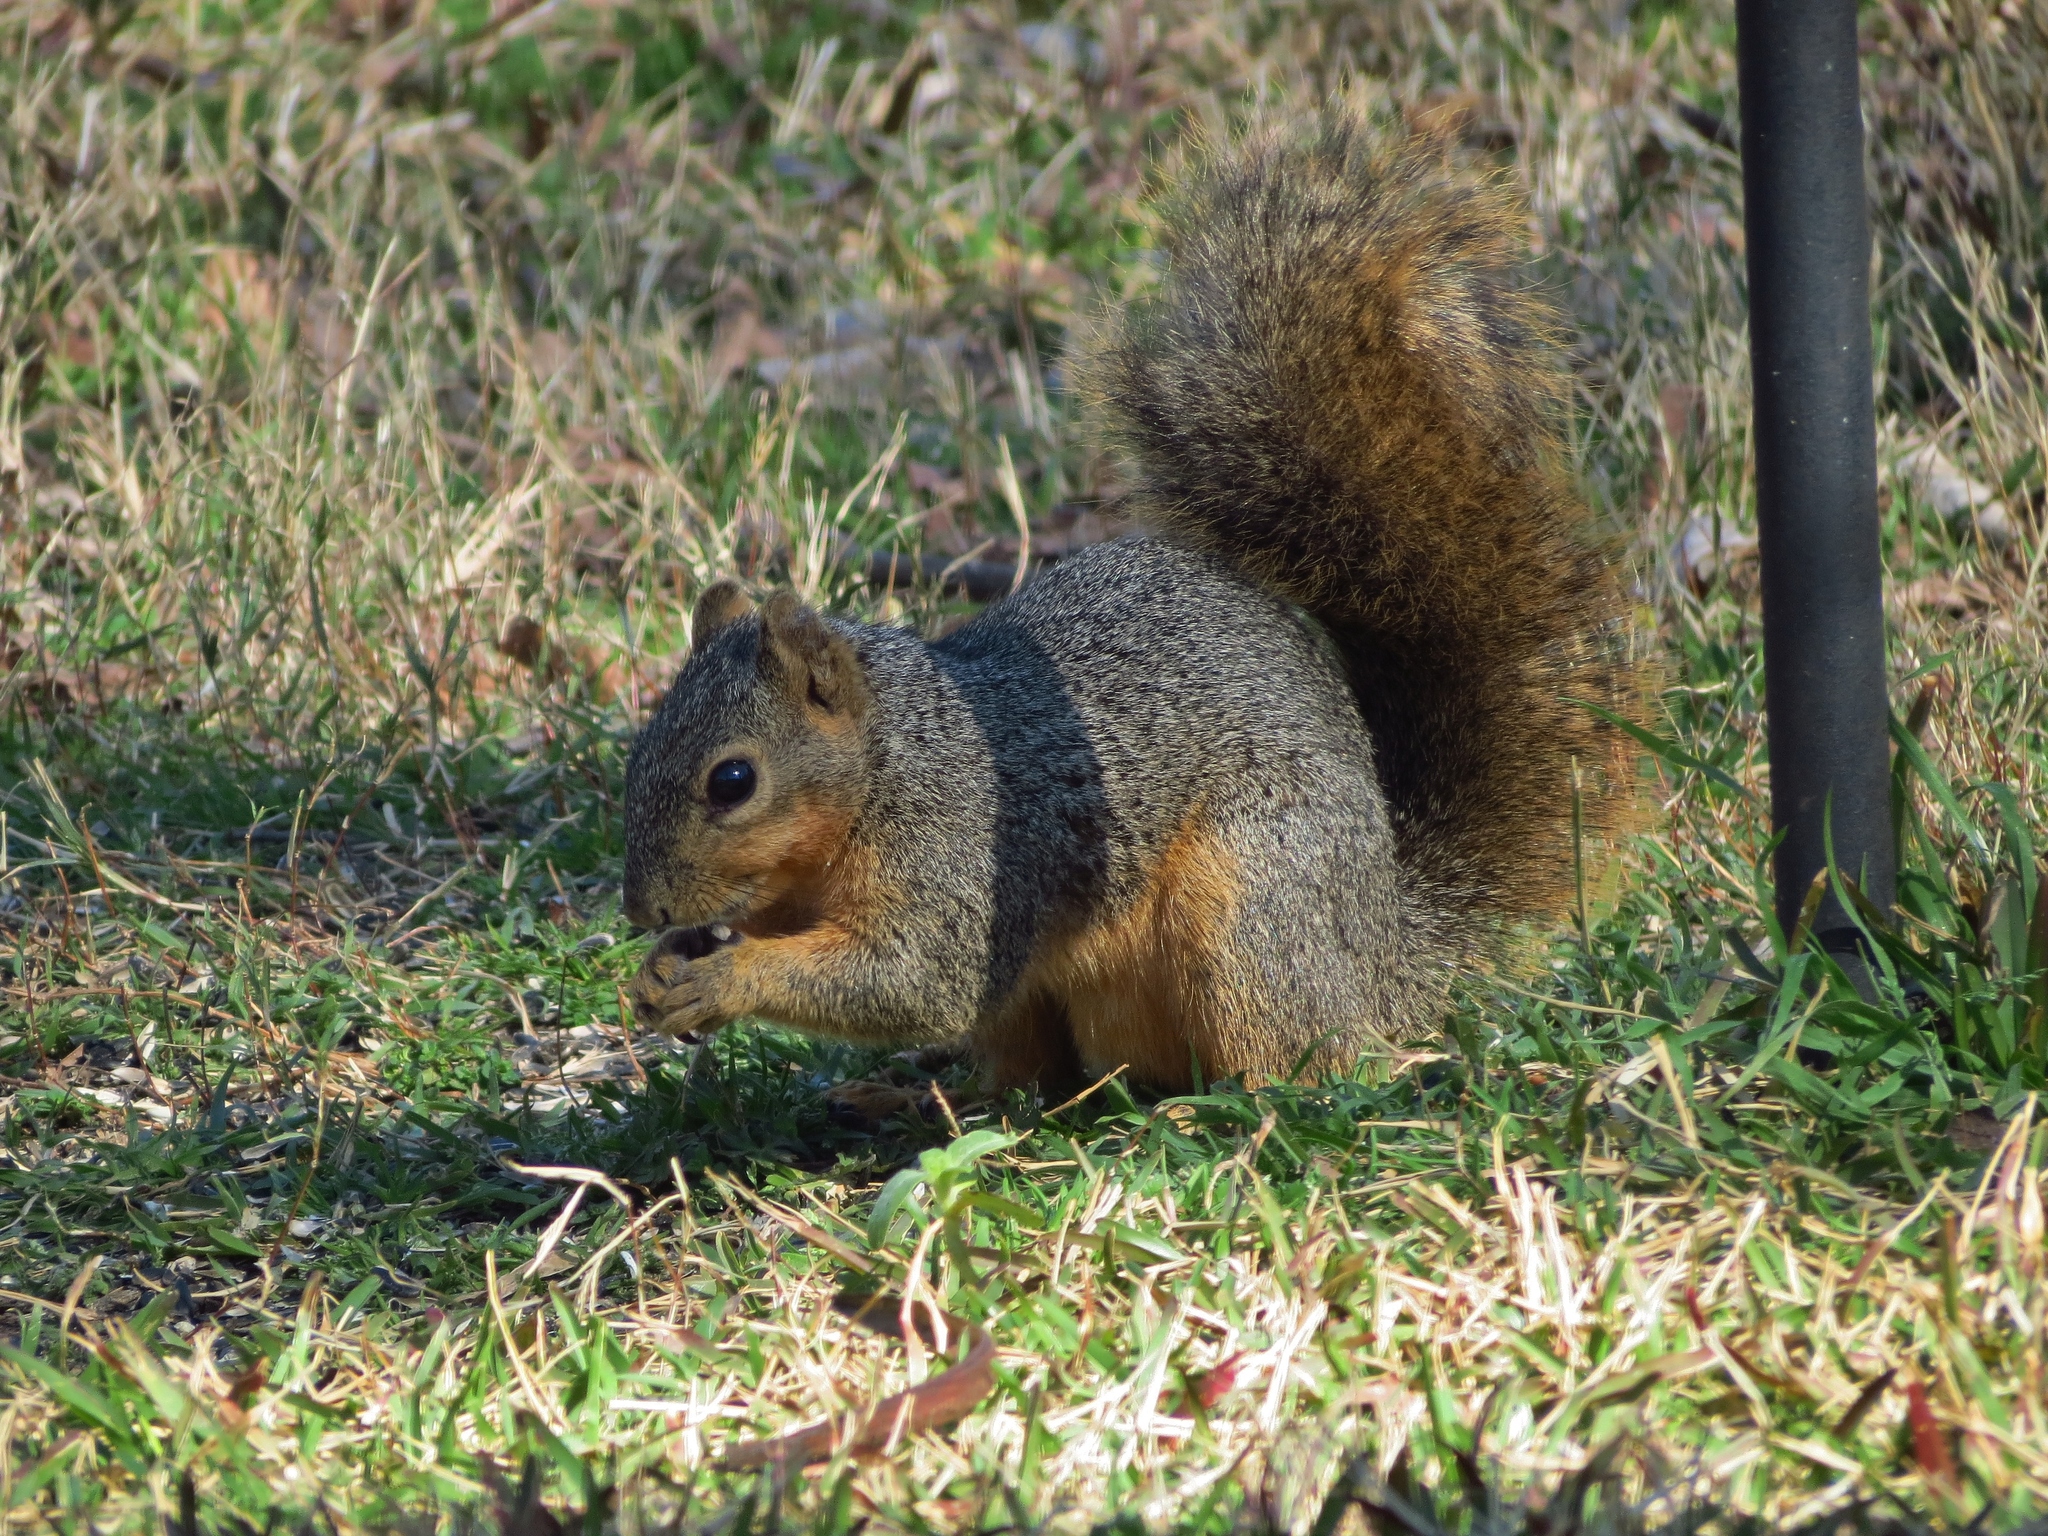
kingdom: Animalia
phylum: Chordata
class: Mammalia
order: Rodentia
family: Sciuridae
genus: Sciurus
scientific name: Sciurus niger
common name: Fox squirrel
